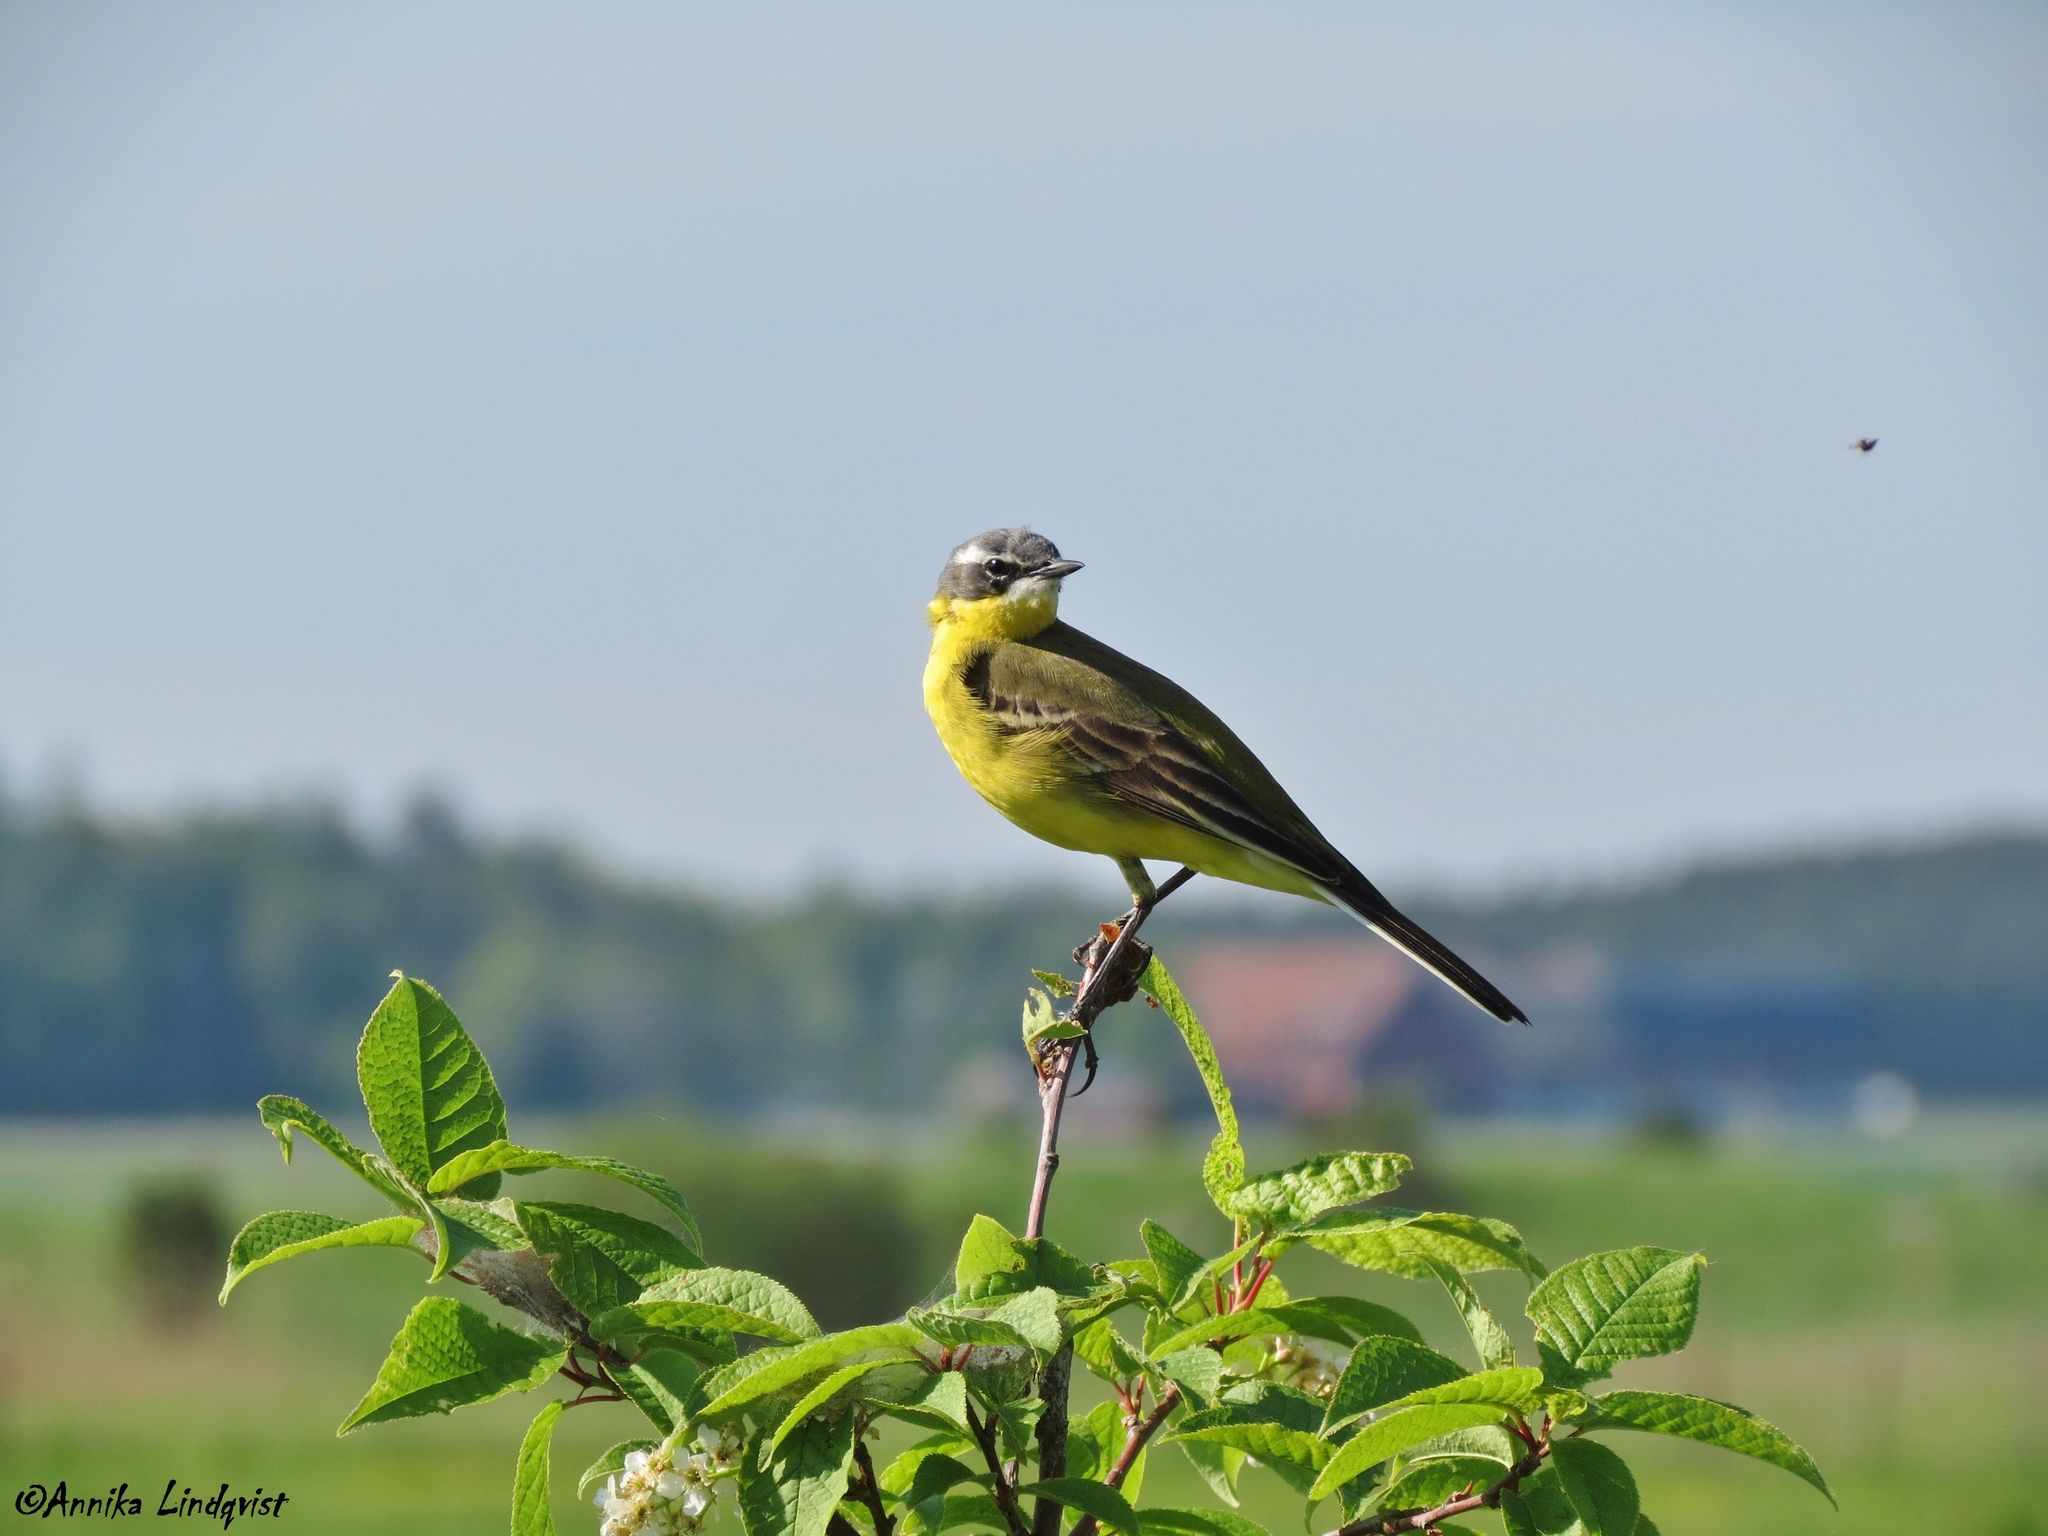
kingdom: Animalia
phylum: Chordata
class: Aves
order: Passeriformes
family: Motacillidae
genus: Motacilla
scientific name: Motacilla flava
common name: Western yellow wagtail
